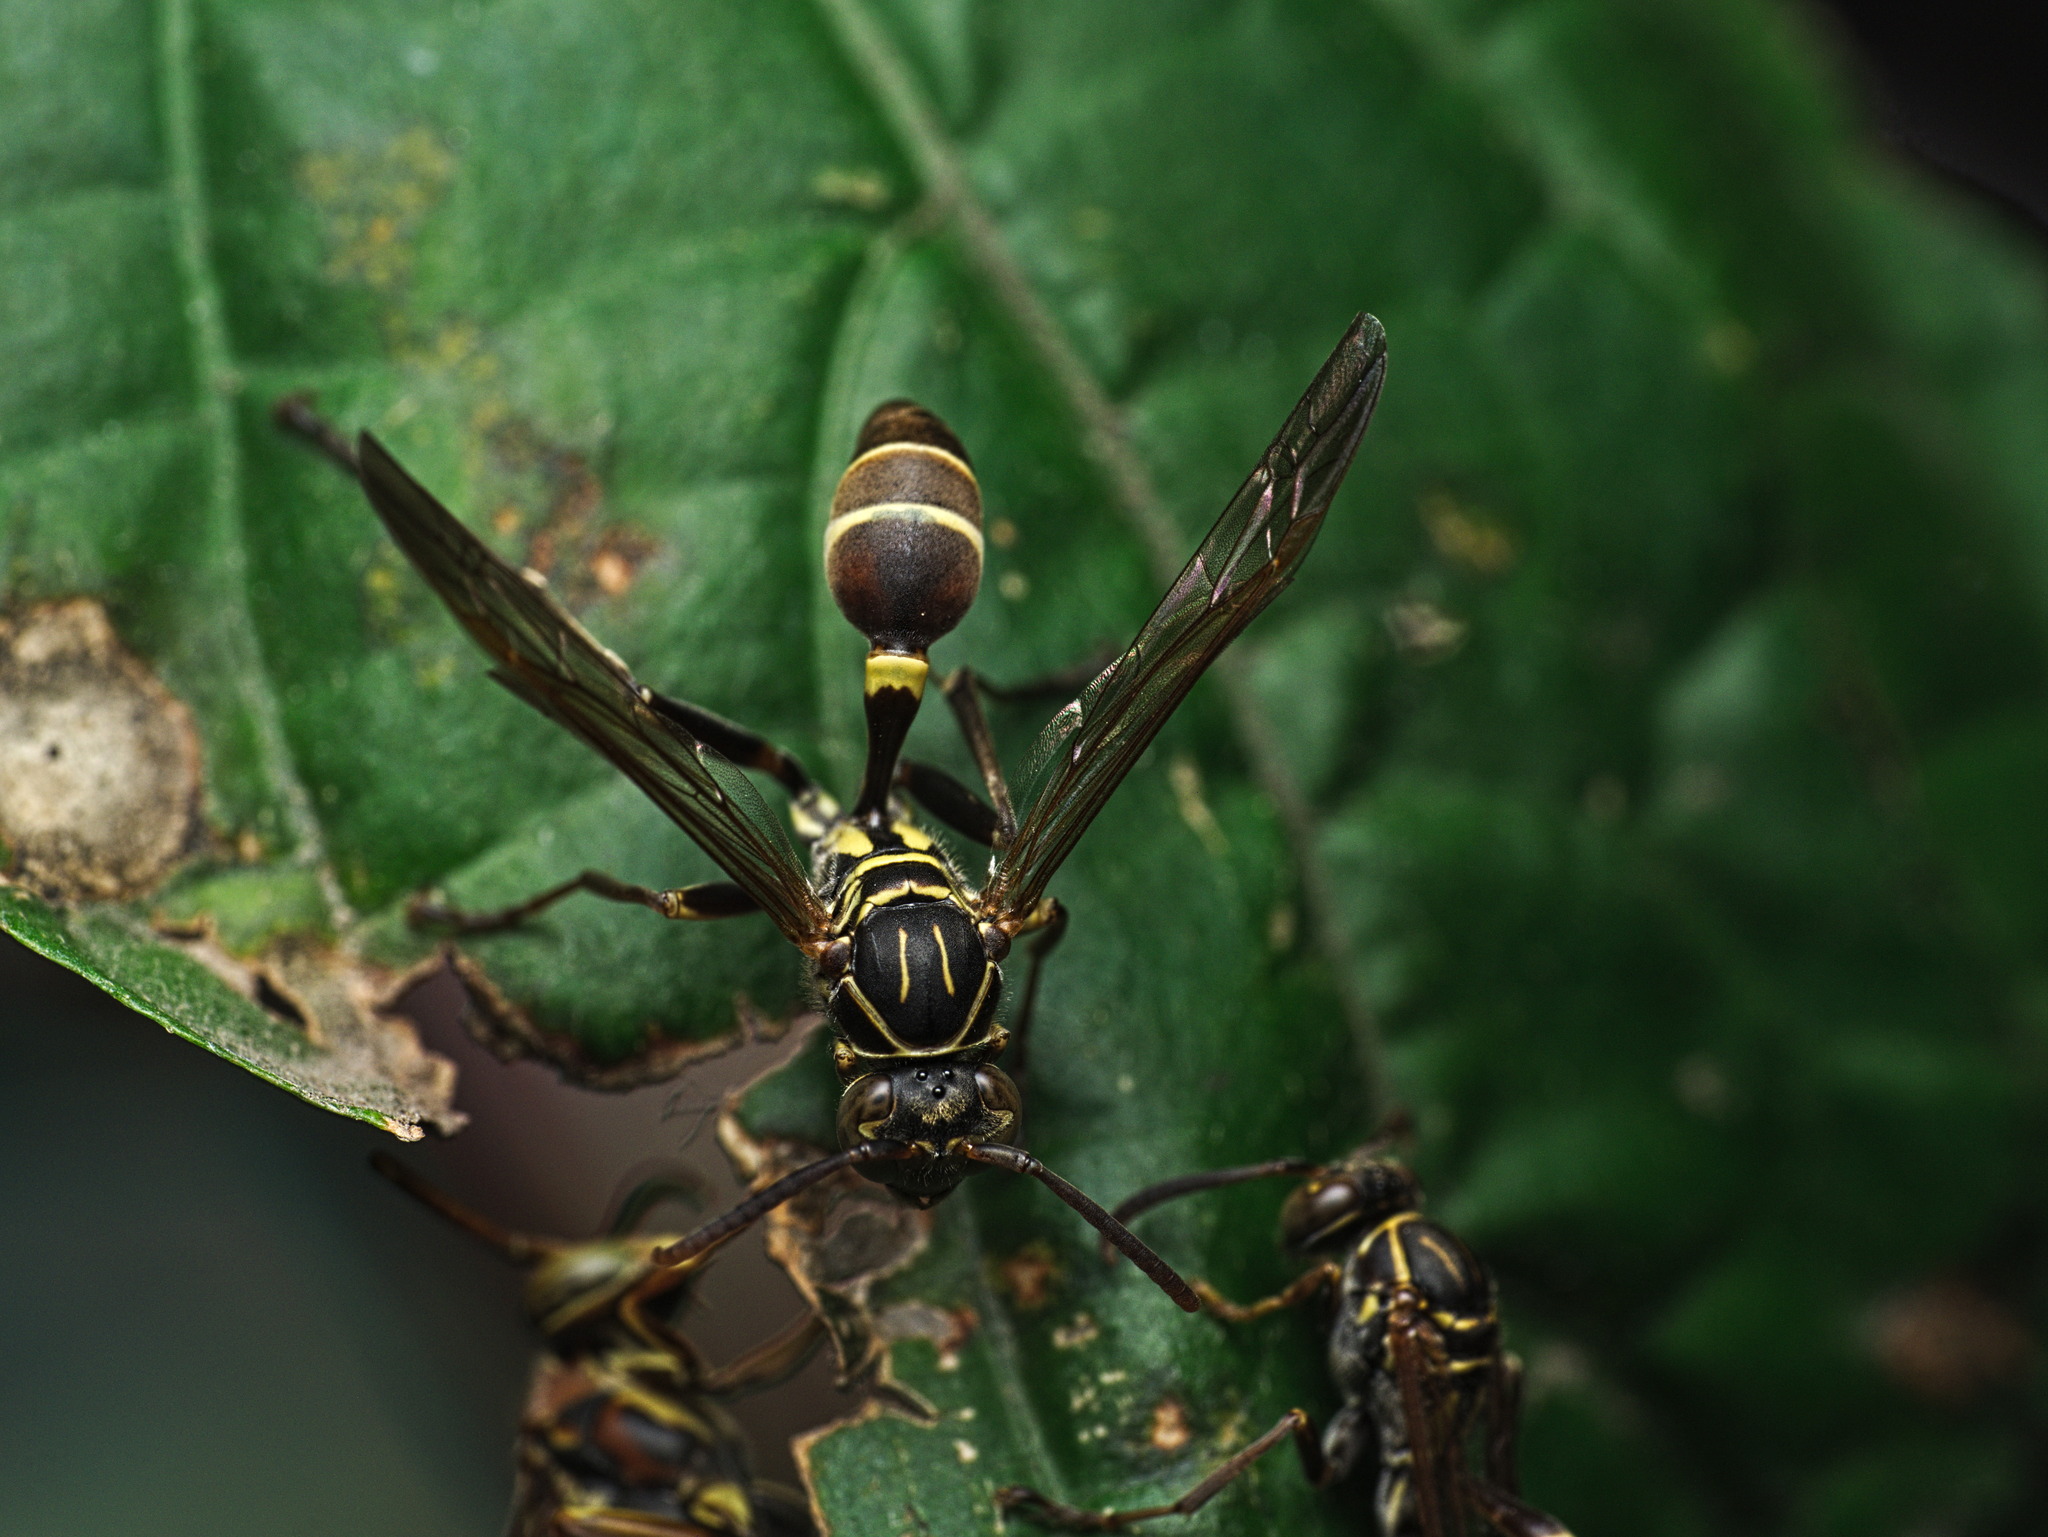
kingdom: Animalia
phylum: Arthropoda
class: Insecta
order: Hymenoptera
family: Vespidae
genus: Mischocyttarus
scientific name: Mischocyttarus mexicanus
